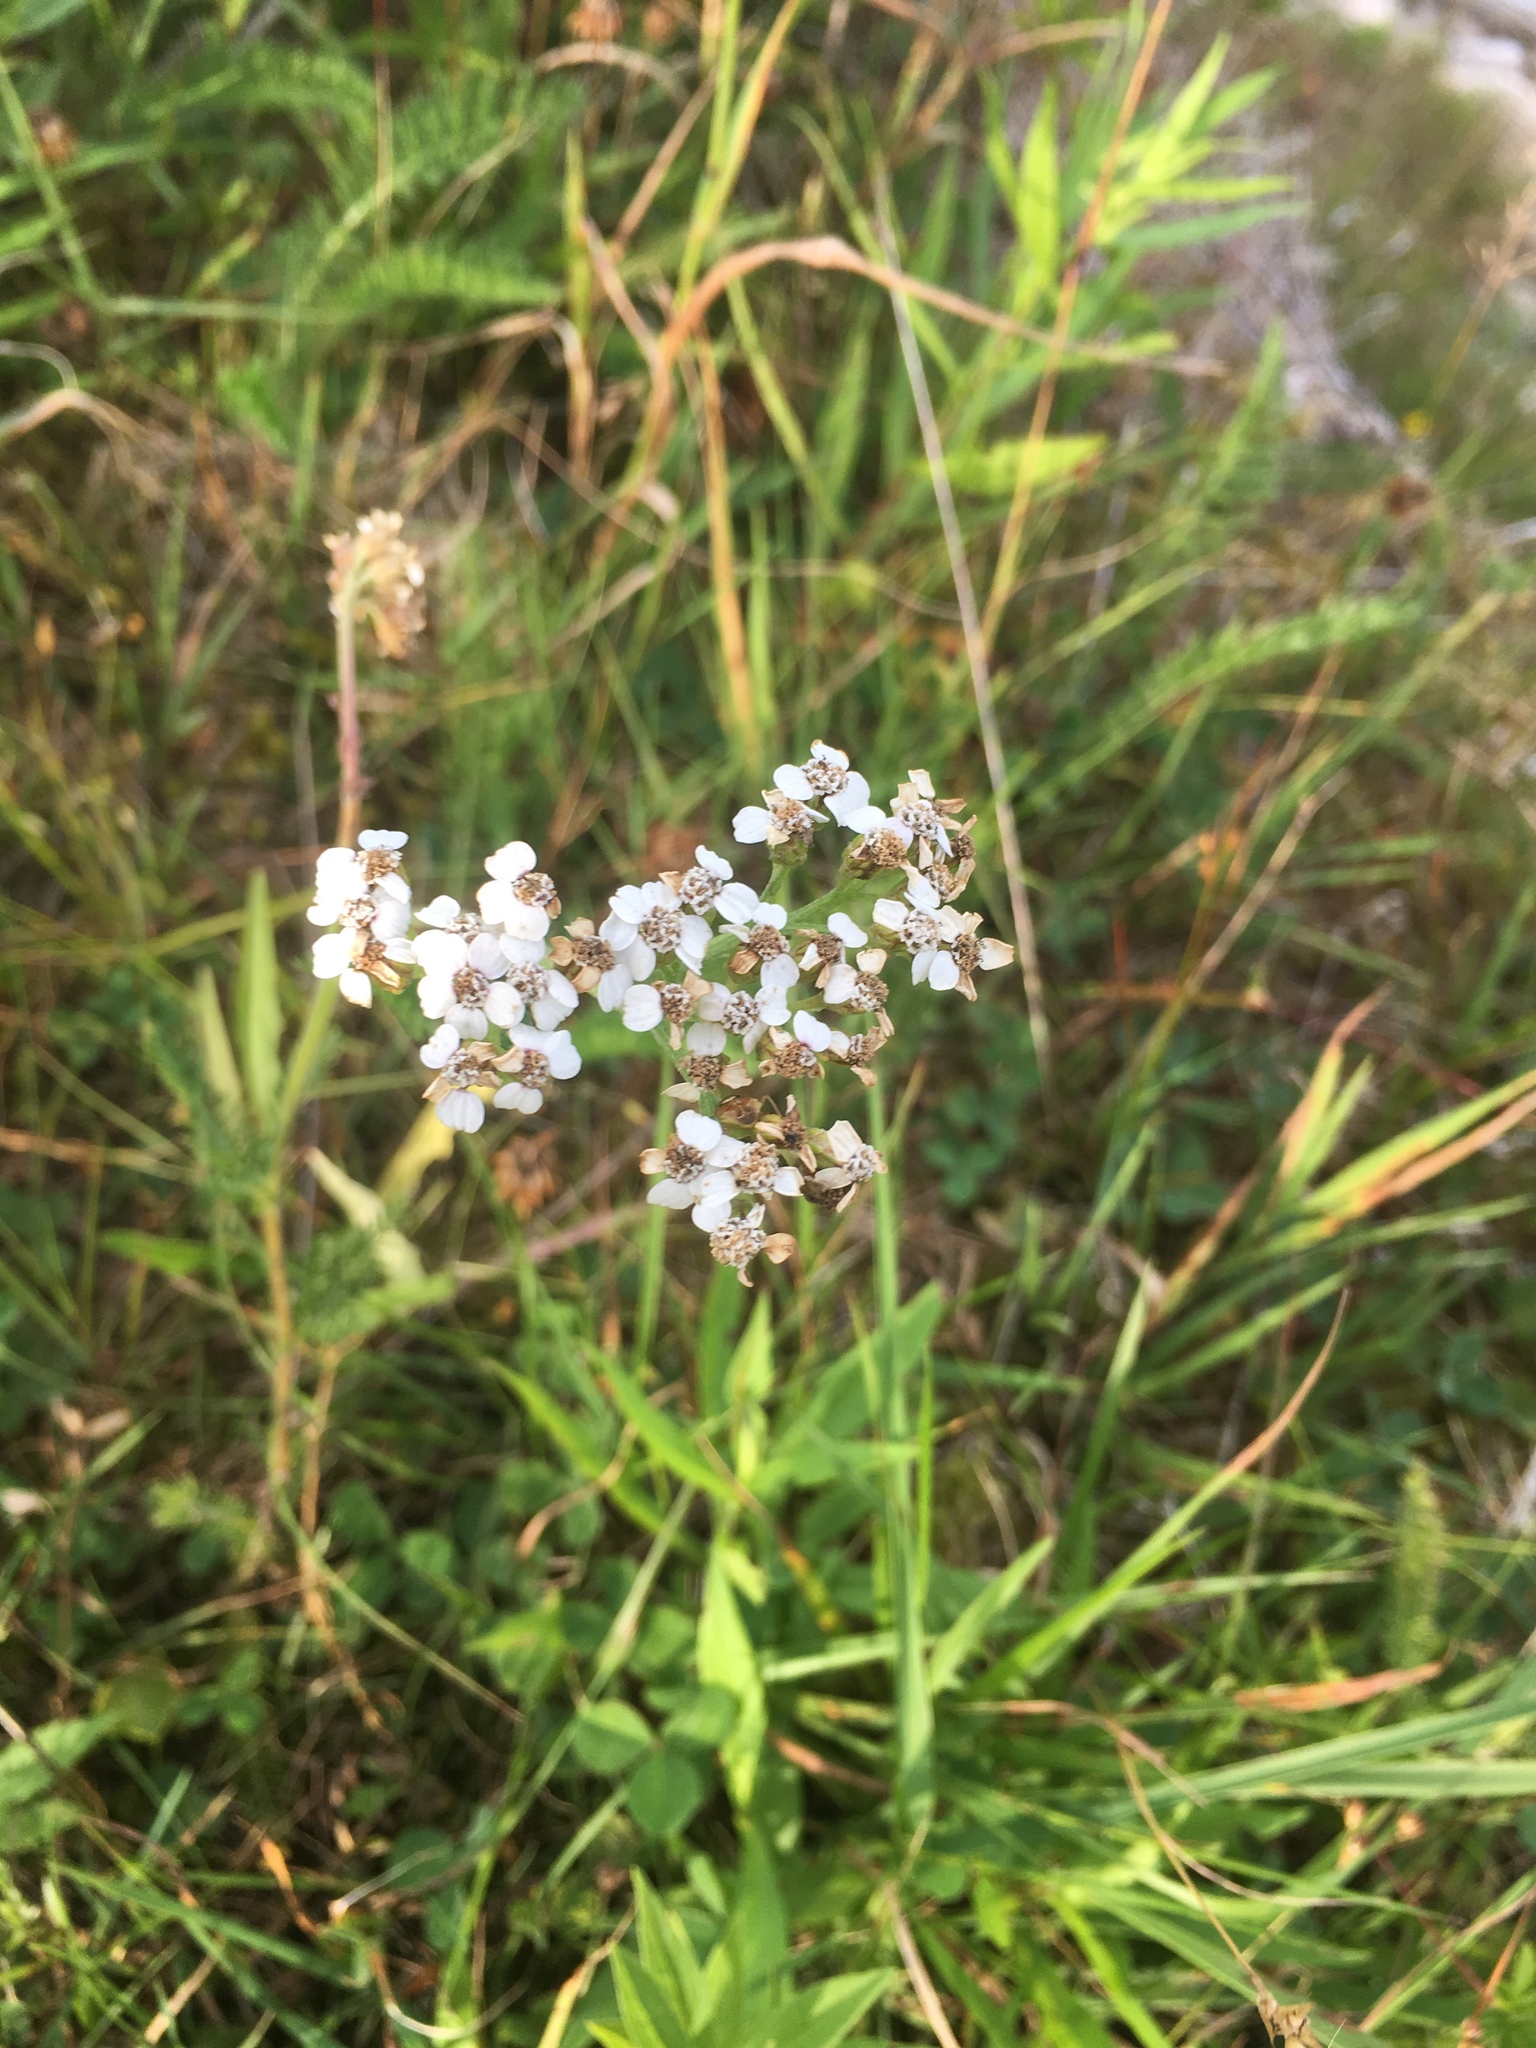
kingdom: Plantae
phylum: Tracheophyta
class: Magnoliopsida
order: Asterales
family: Asteraceae
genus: Achillea
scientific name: Achillea millefolium
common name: Yarrow
